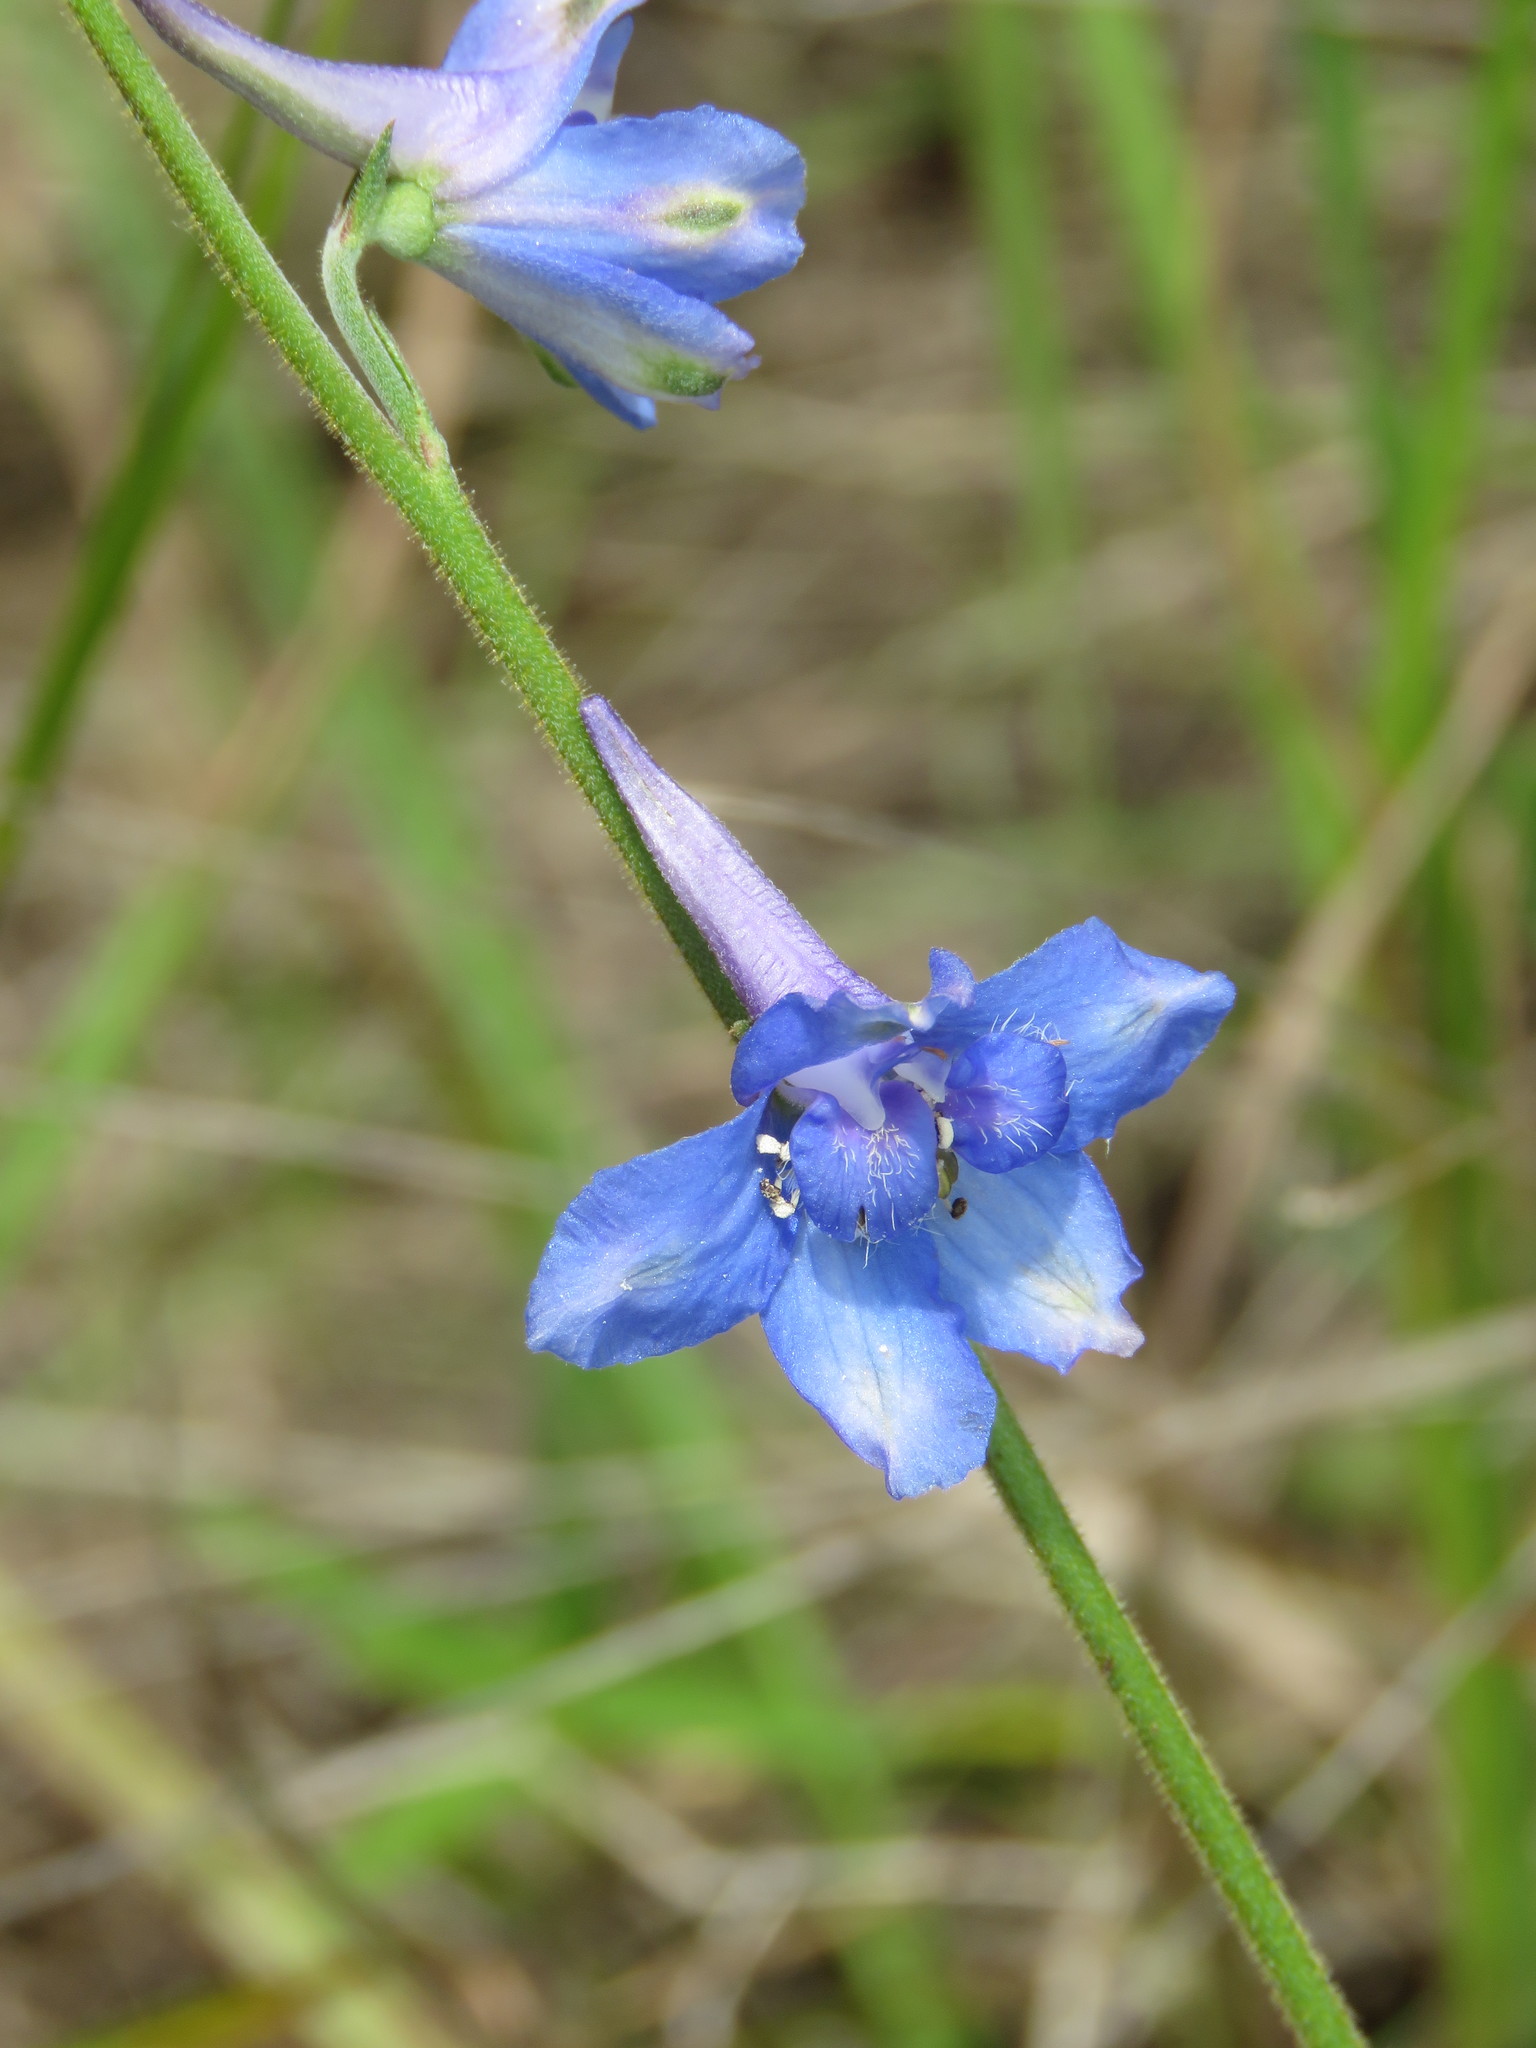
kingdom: Plantae
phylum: Tracheophyta
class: Magnoliopsida
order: Ranunculales
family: Ranunculaceae
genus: Delphinium
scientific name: Delphinium carolinianum
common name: Carolina larkspur
